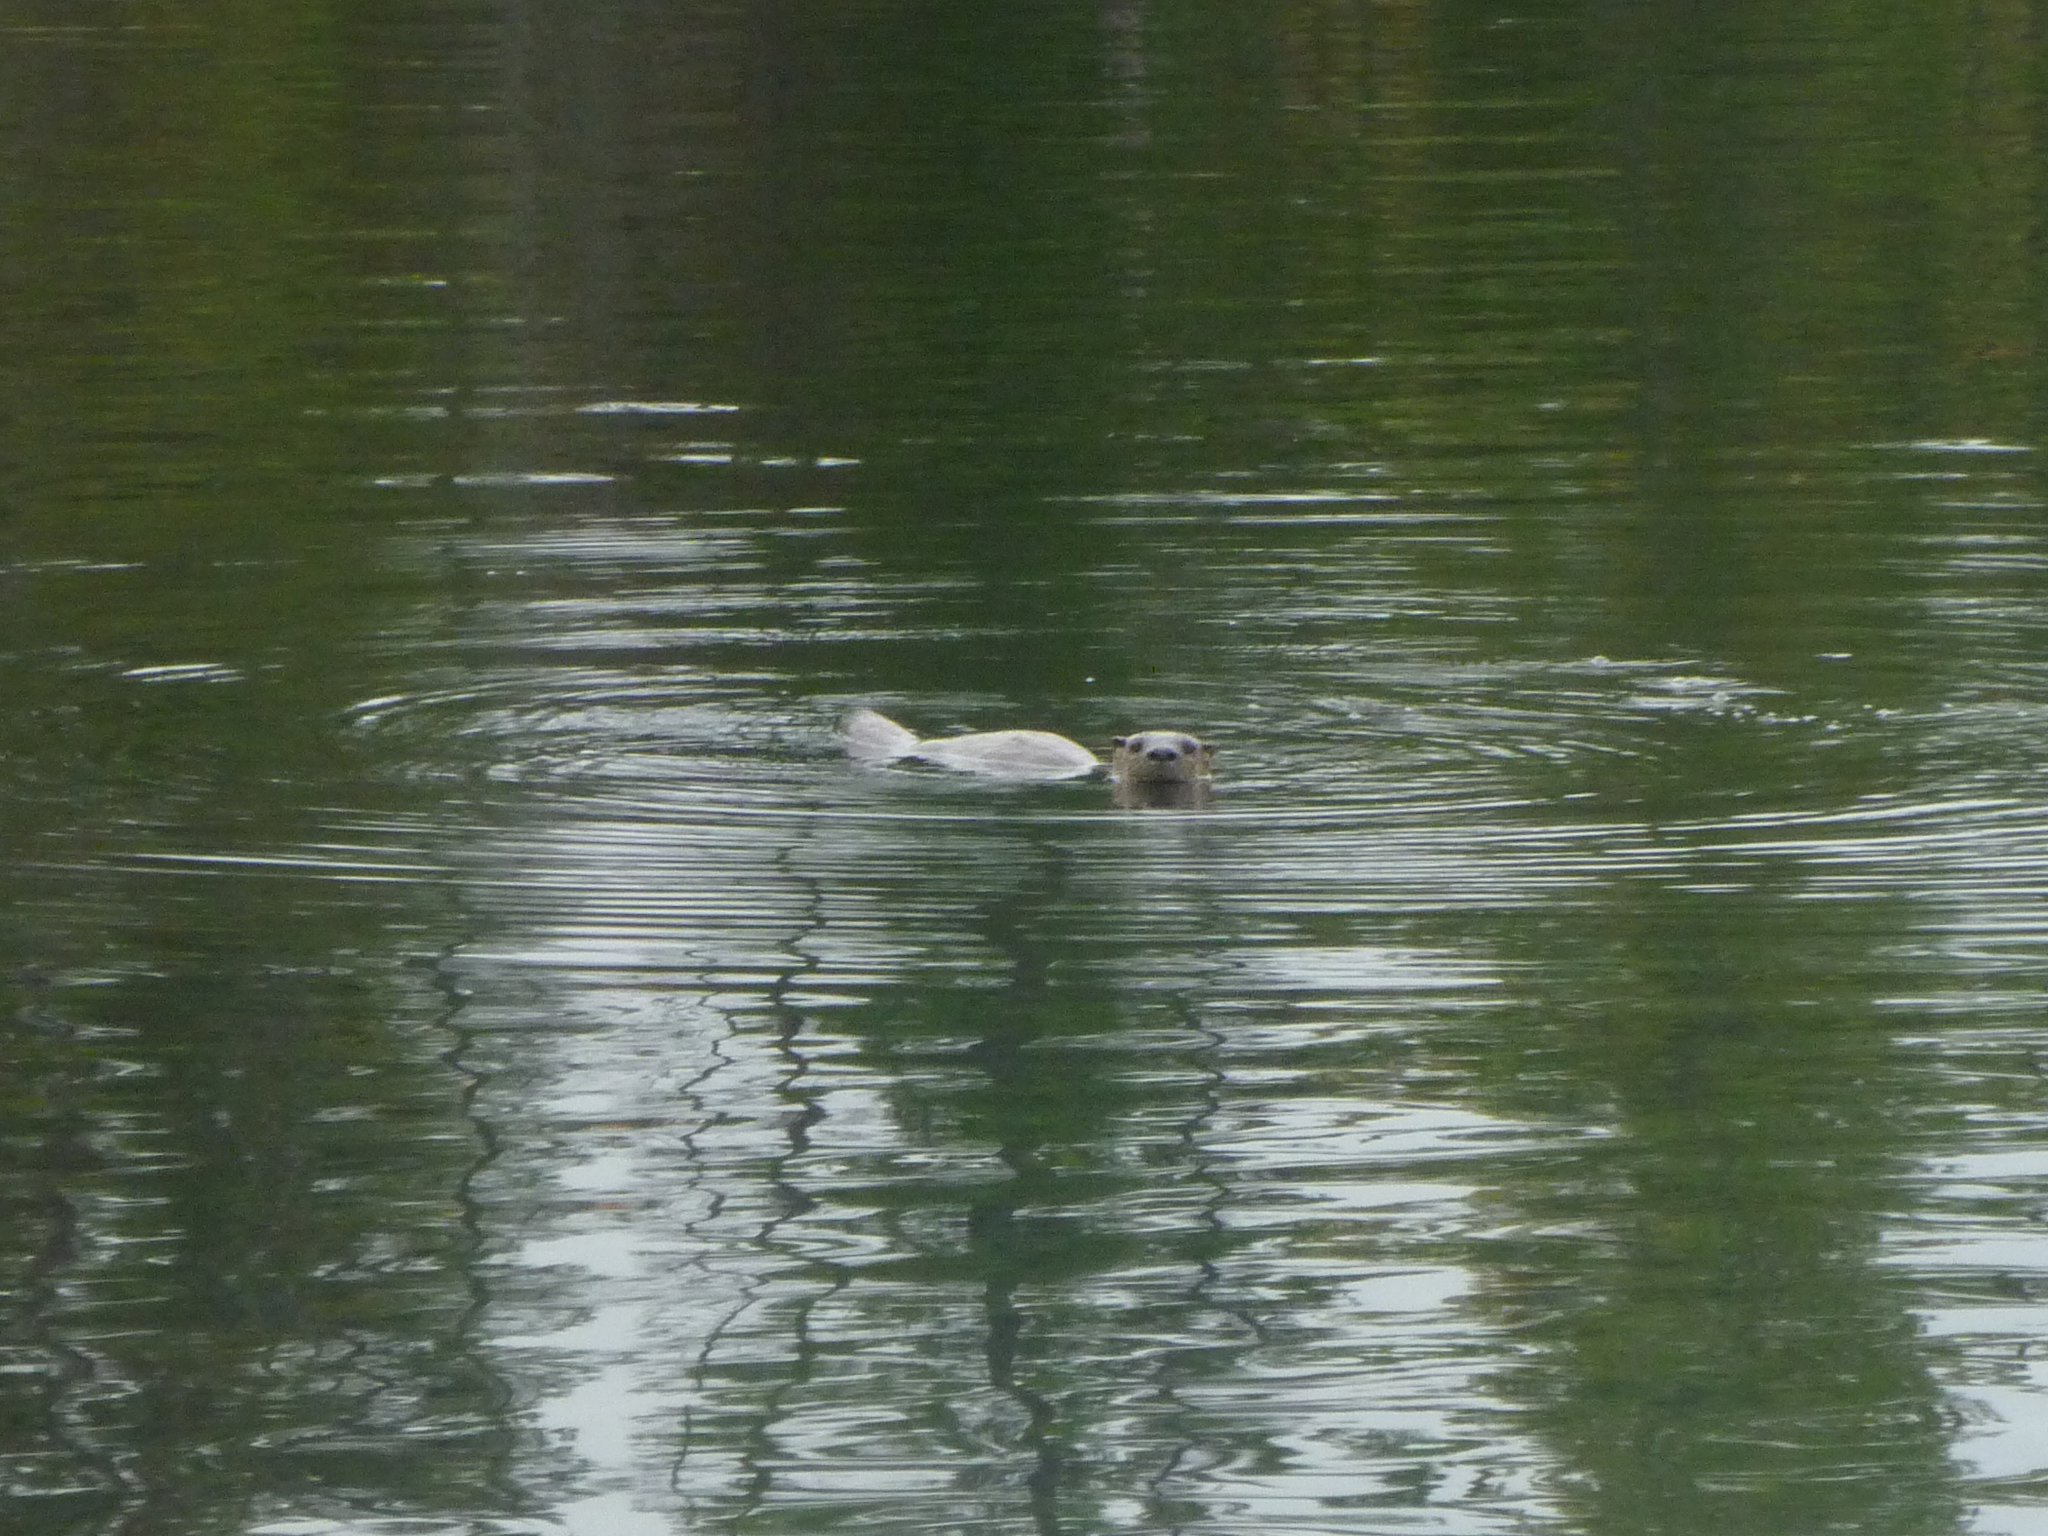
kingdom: Animalia
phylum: Chordata
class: Mammalia
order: Carnivora
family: Mustelidae
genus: Lontra
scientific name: Lontra canadensis
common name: North american river otter
